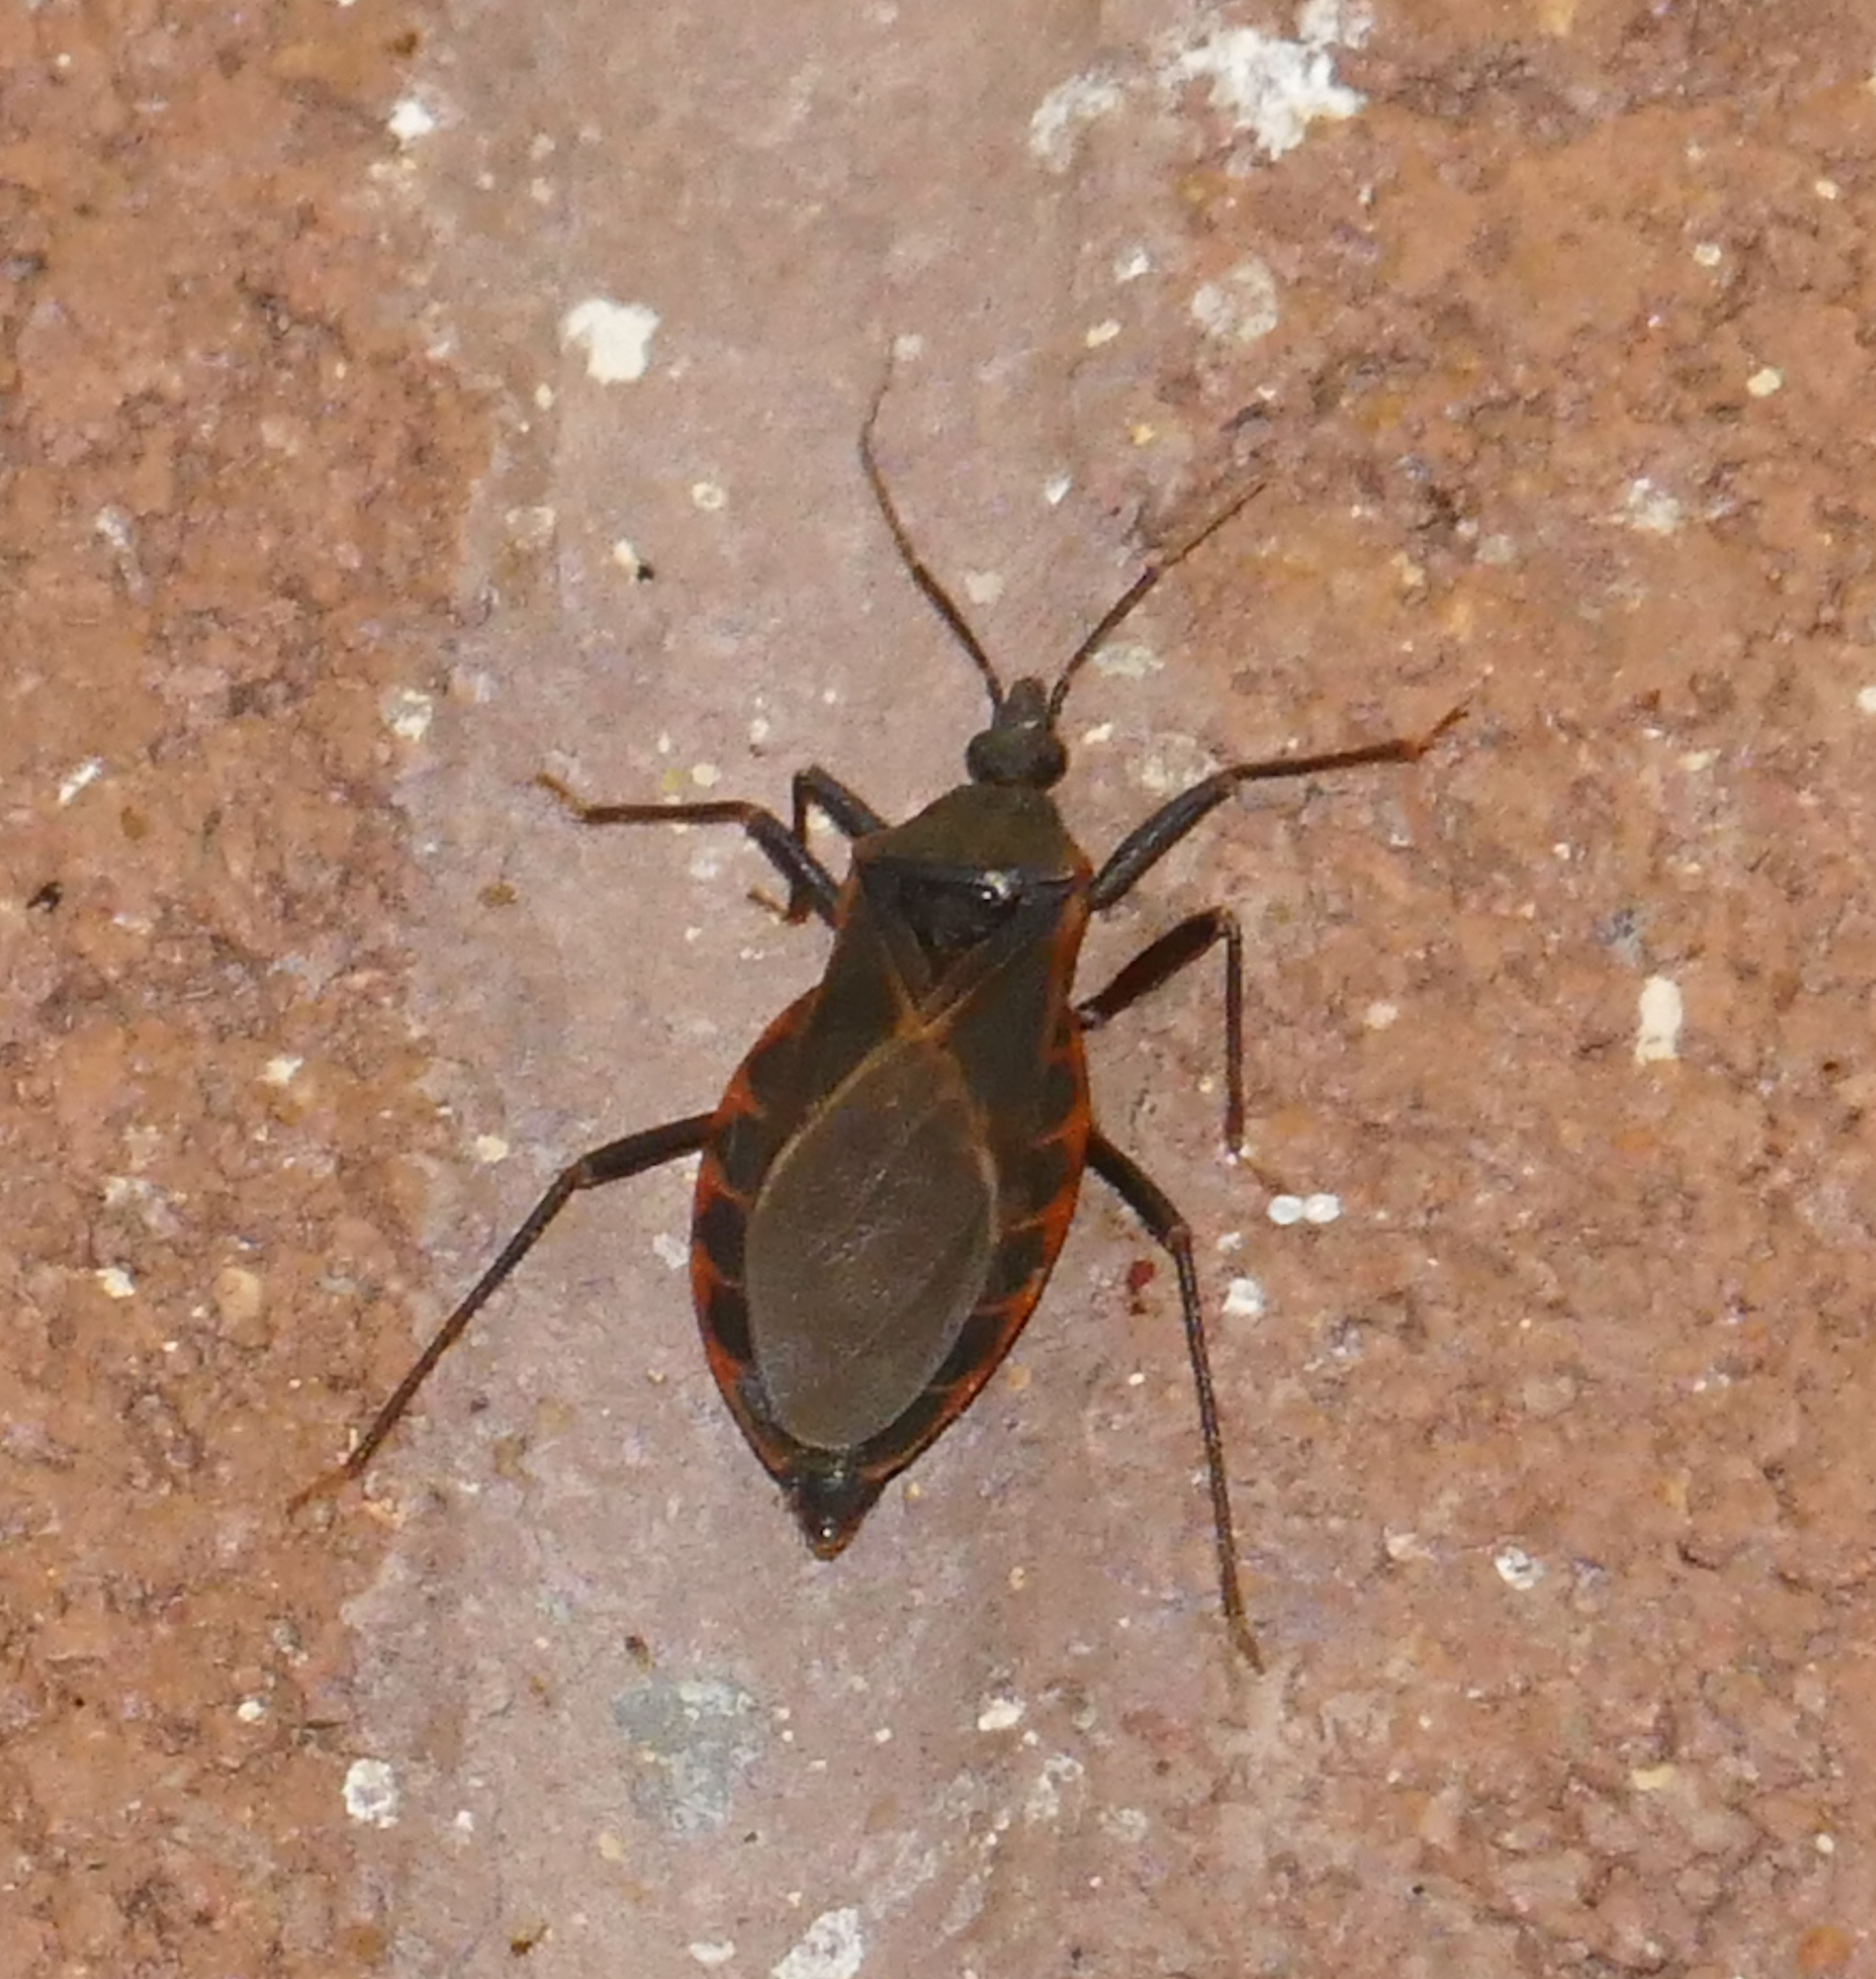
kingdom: Animalia
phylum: Arthropoda
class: Insecta
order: Hemiptera
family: Reduviidae
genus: Triatoma
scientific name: Triatoma rubida
